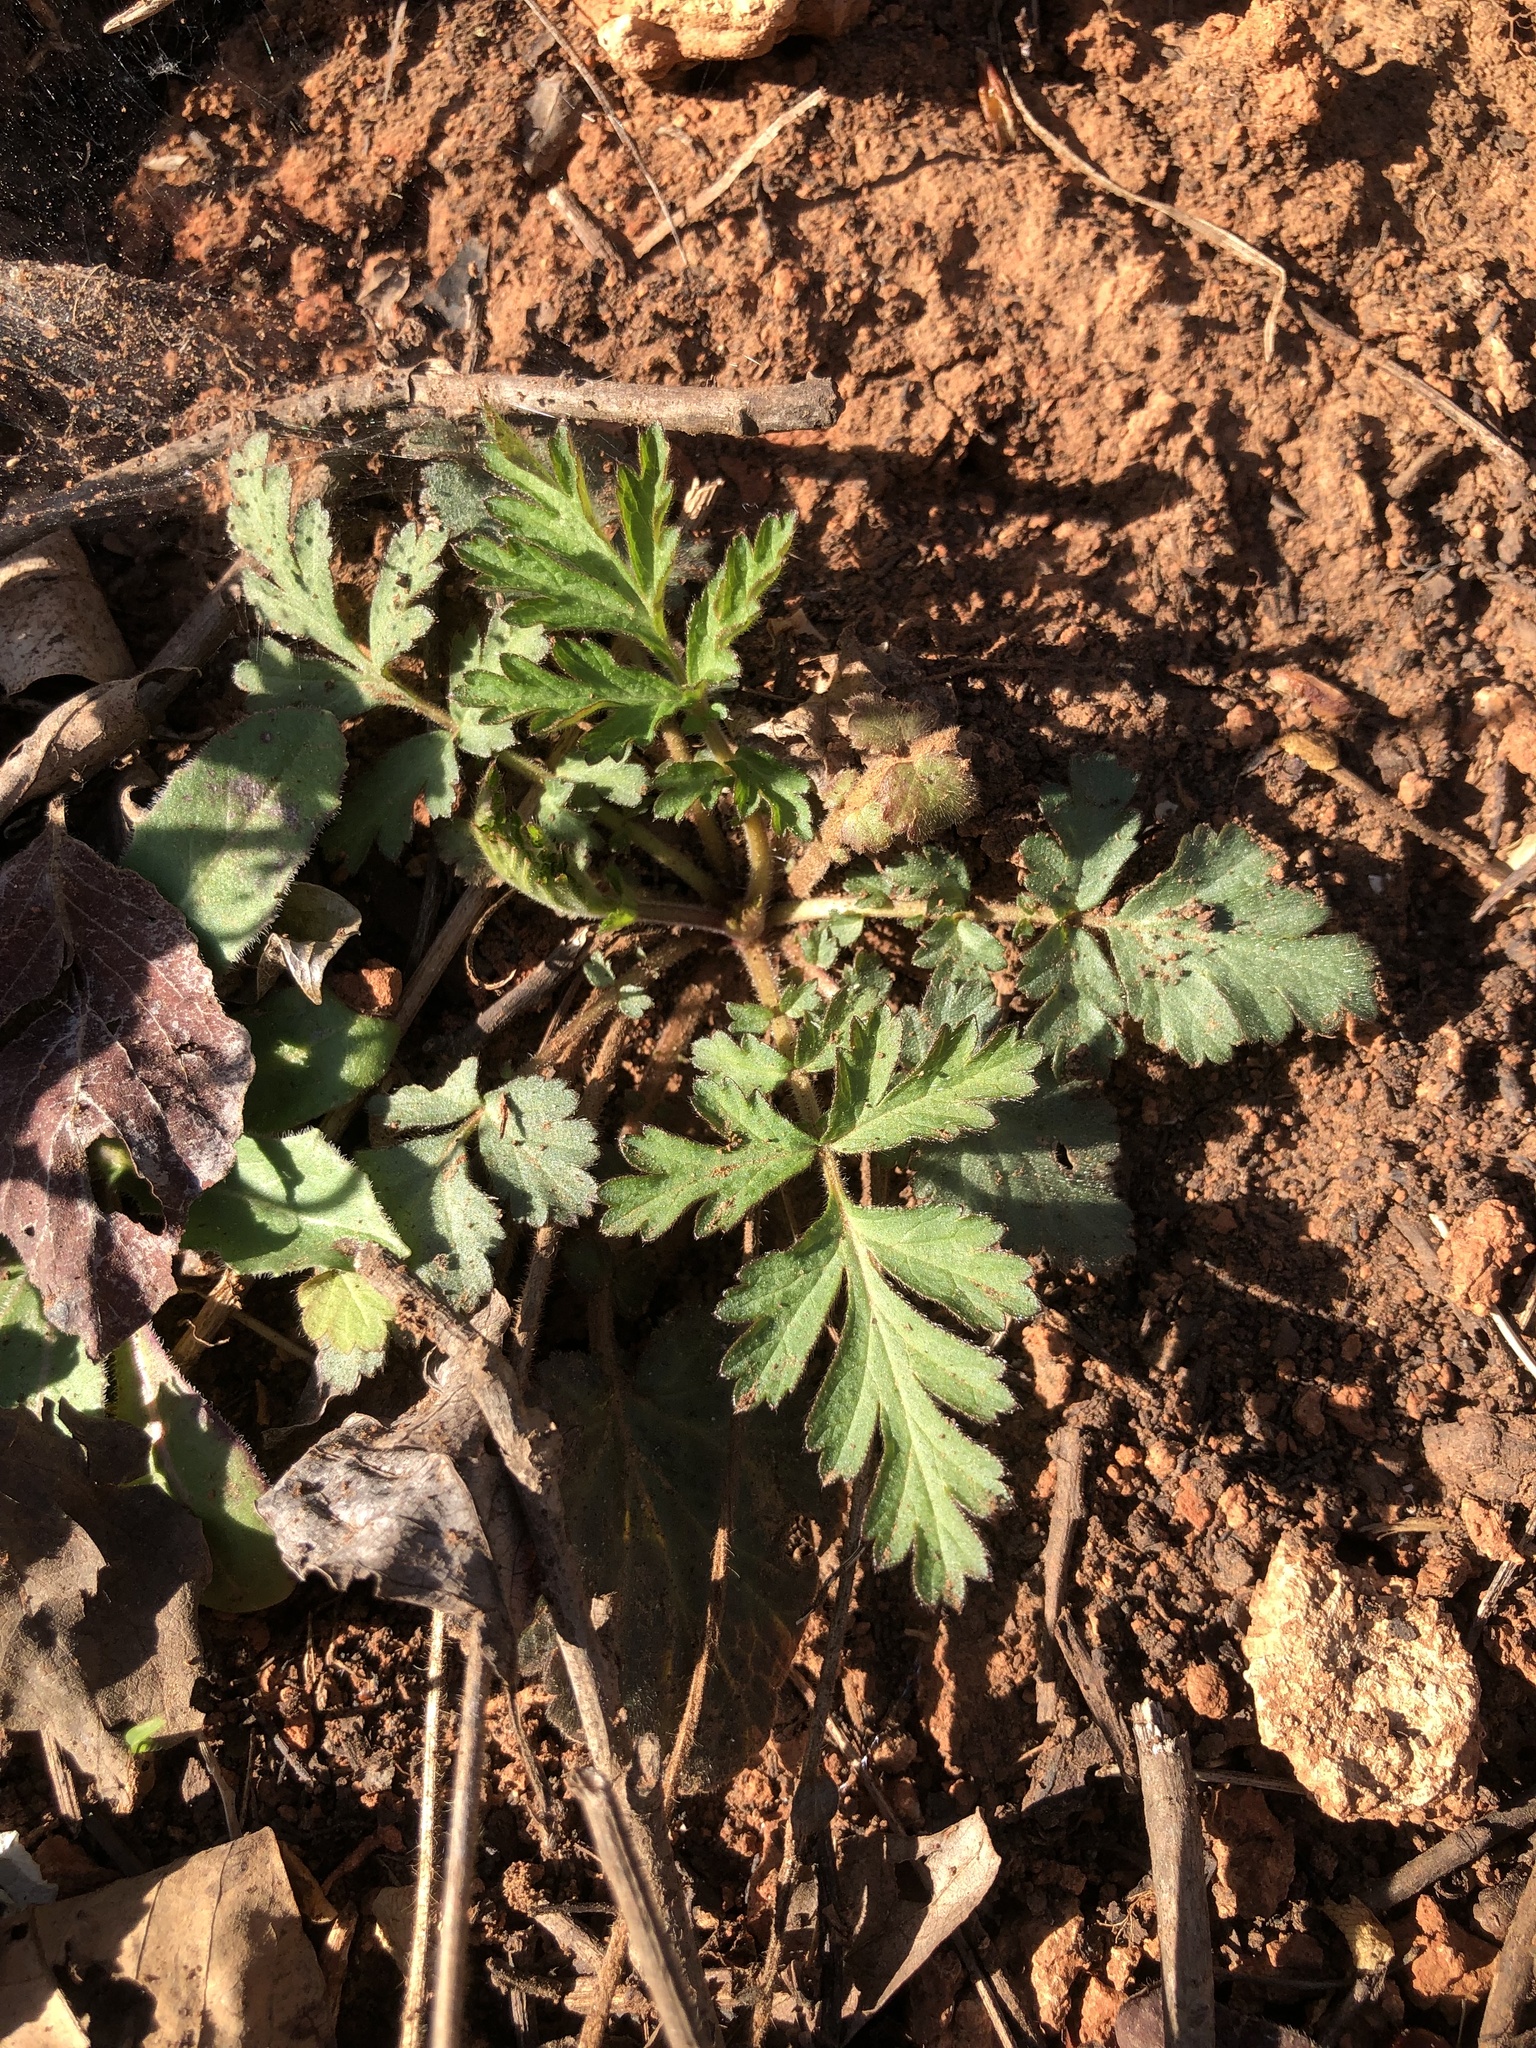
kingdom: Plantae
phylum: Tracheophyta
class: Magnoliopsida
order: Rosales
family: Rosaceae
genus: Geum
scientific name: Geum canadense
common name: White avens
